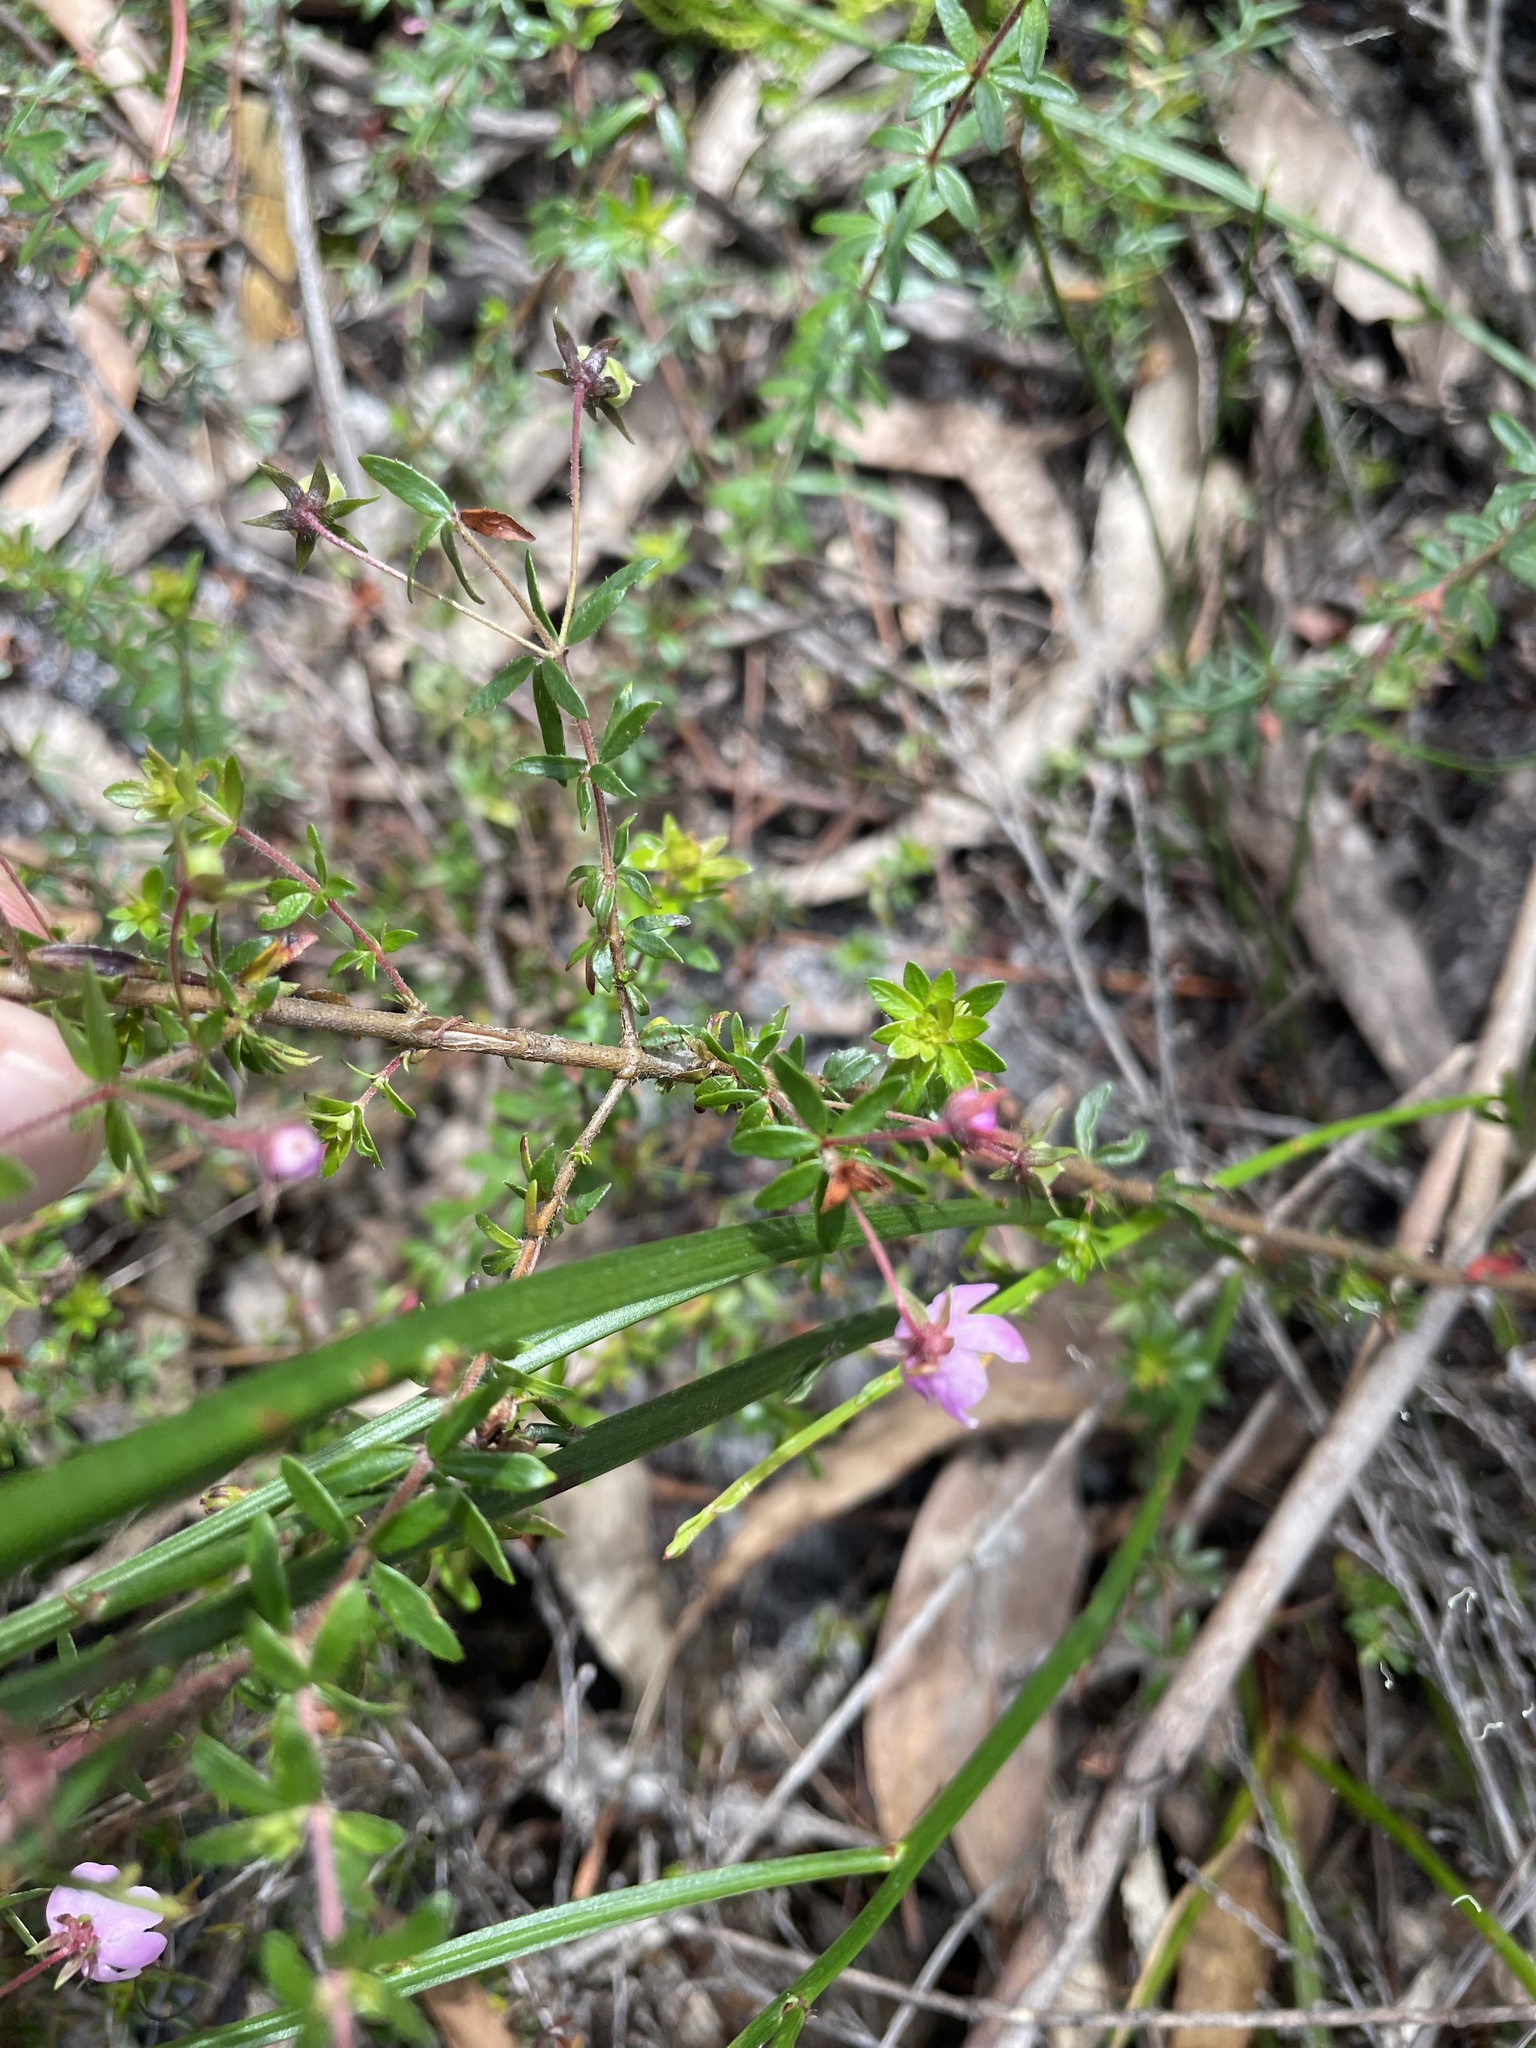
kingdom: Plantae
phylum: Tracheophyta
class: Magnoliopsida
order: Oxalidales
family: Cunoniaceae
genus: Bauera
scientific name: Bauera rubioides
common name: River-rose
